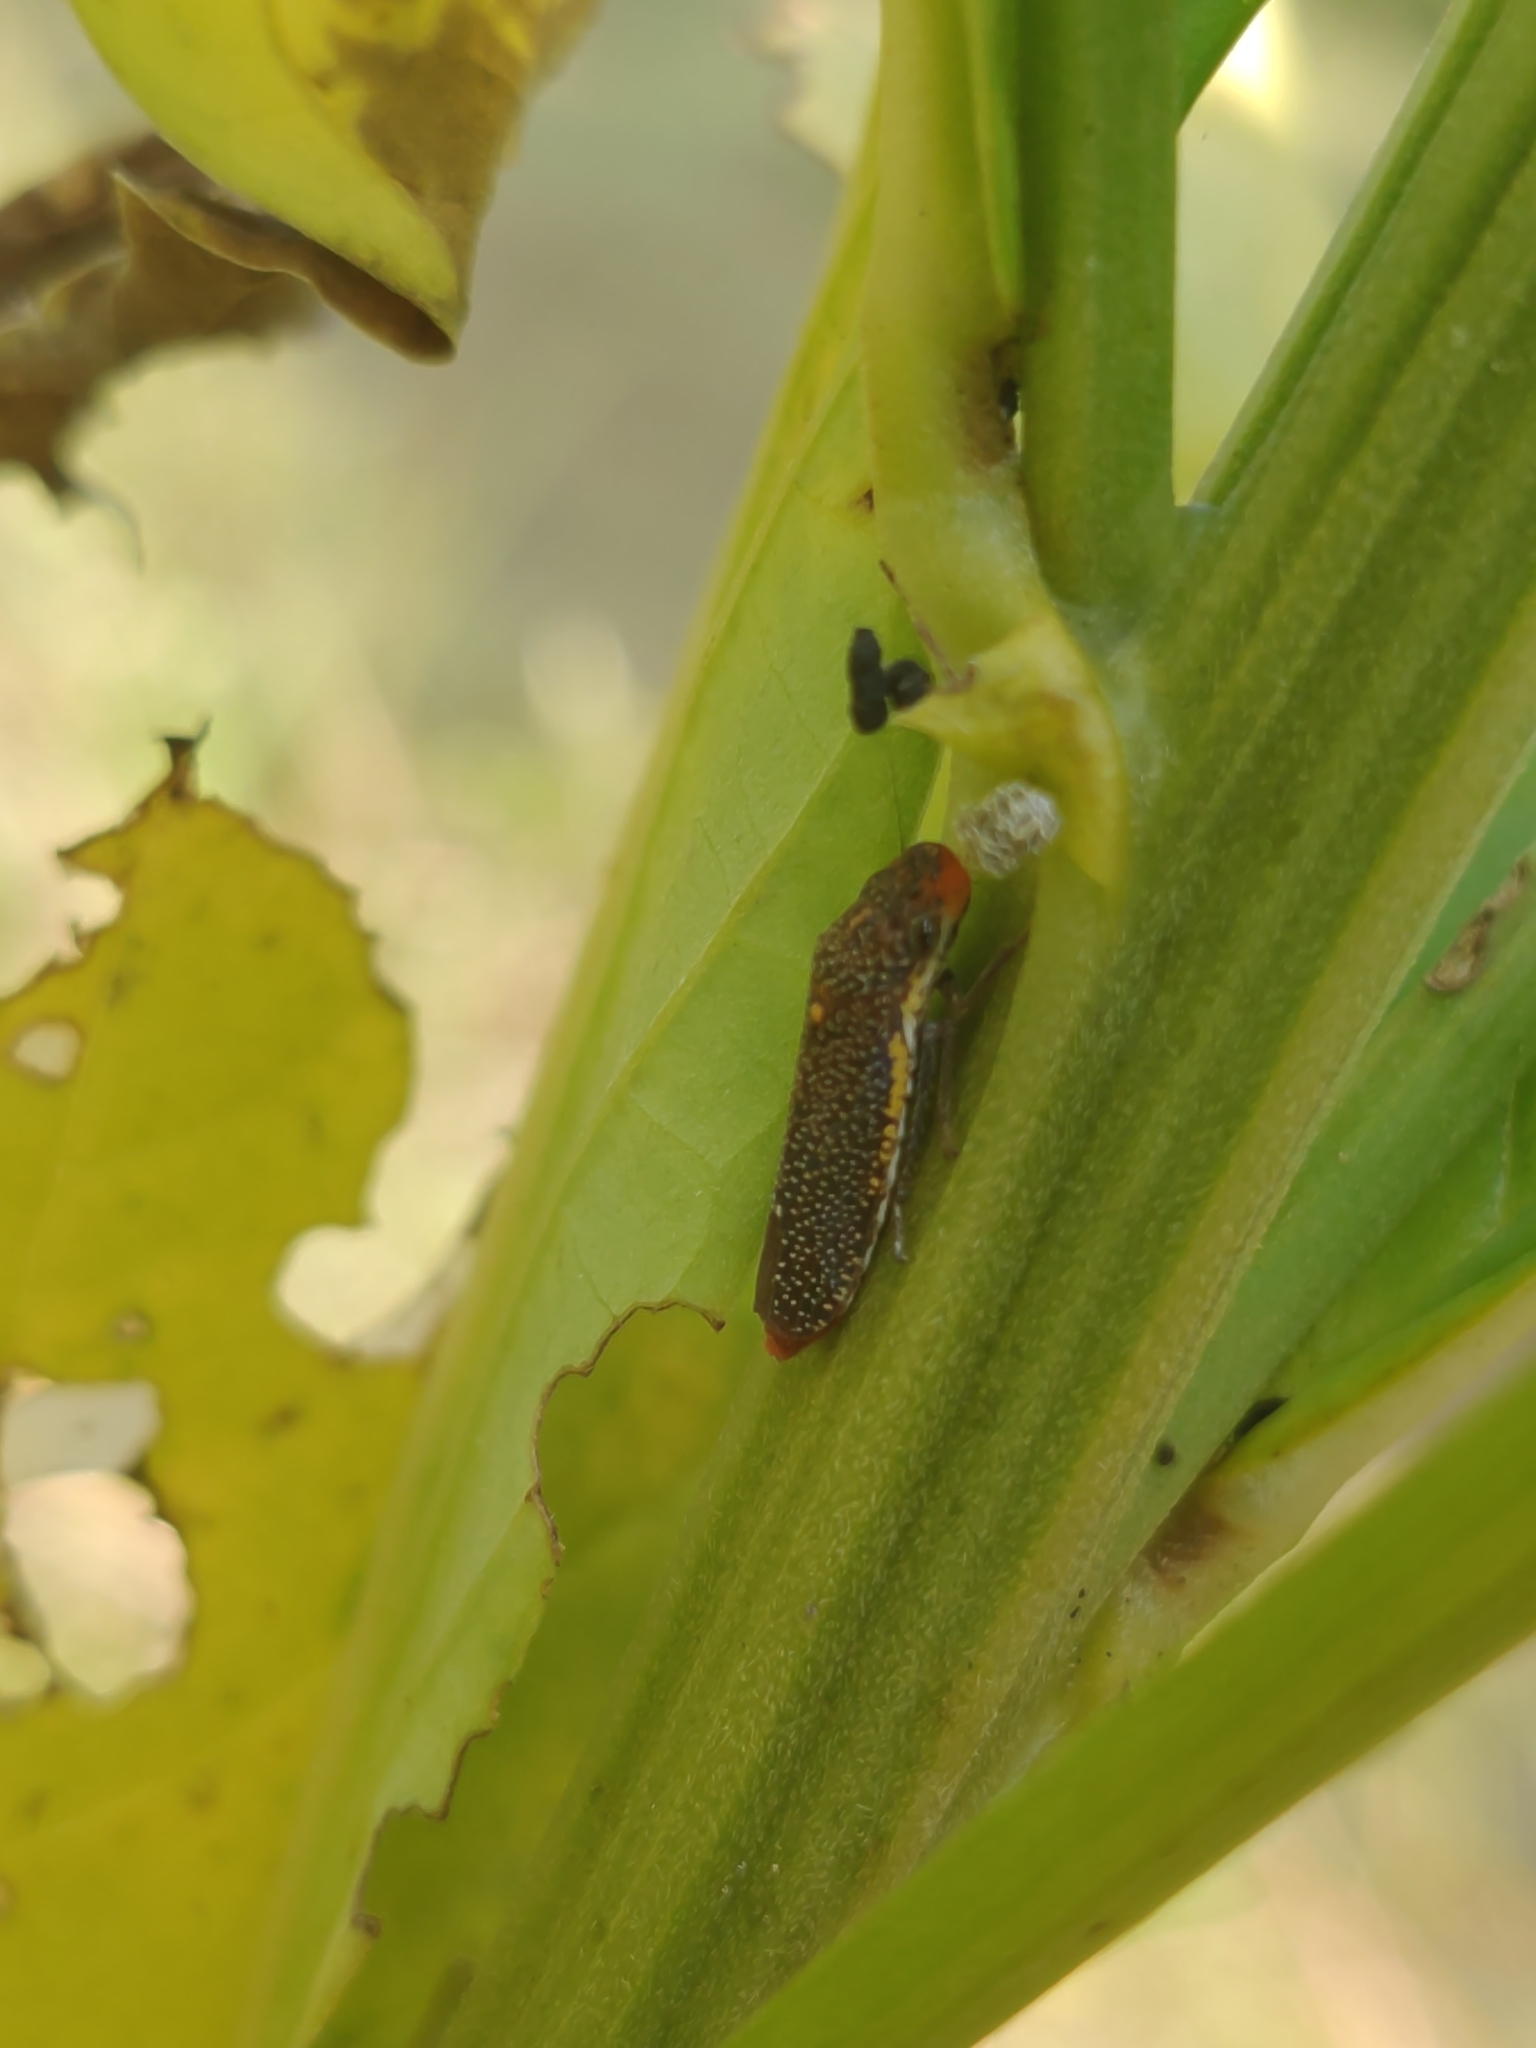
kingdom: Animalia
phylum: Arthropoda
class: Insecta
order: Hemiptera
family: Cicadellidae
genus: Paraulacizes
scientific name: Paraulacizes irrorata
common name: Speckled sharpshooter
